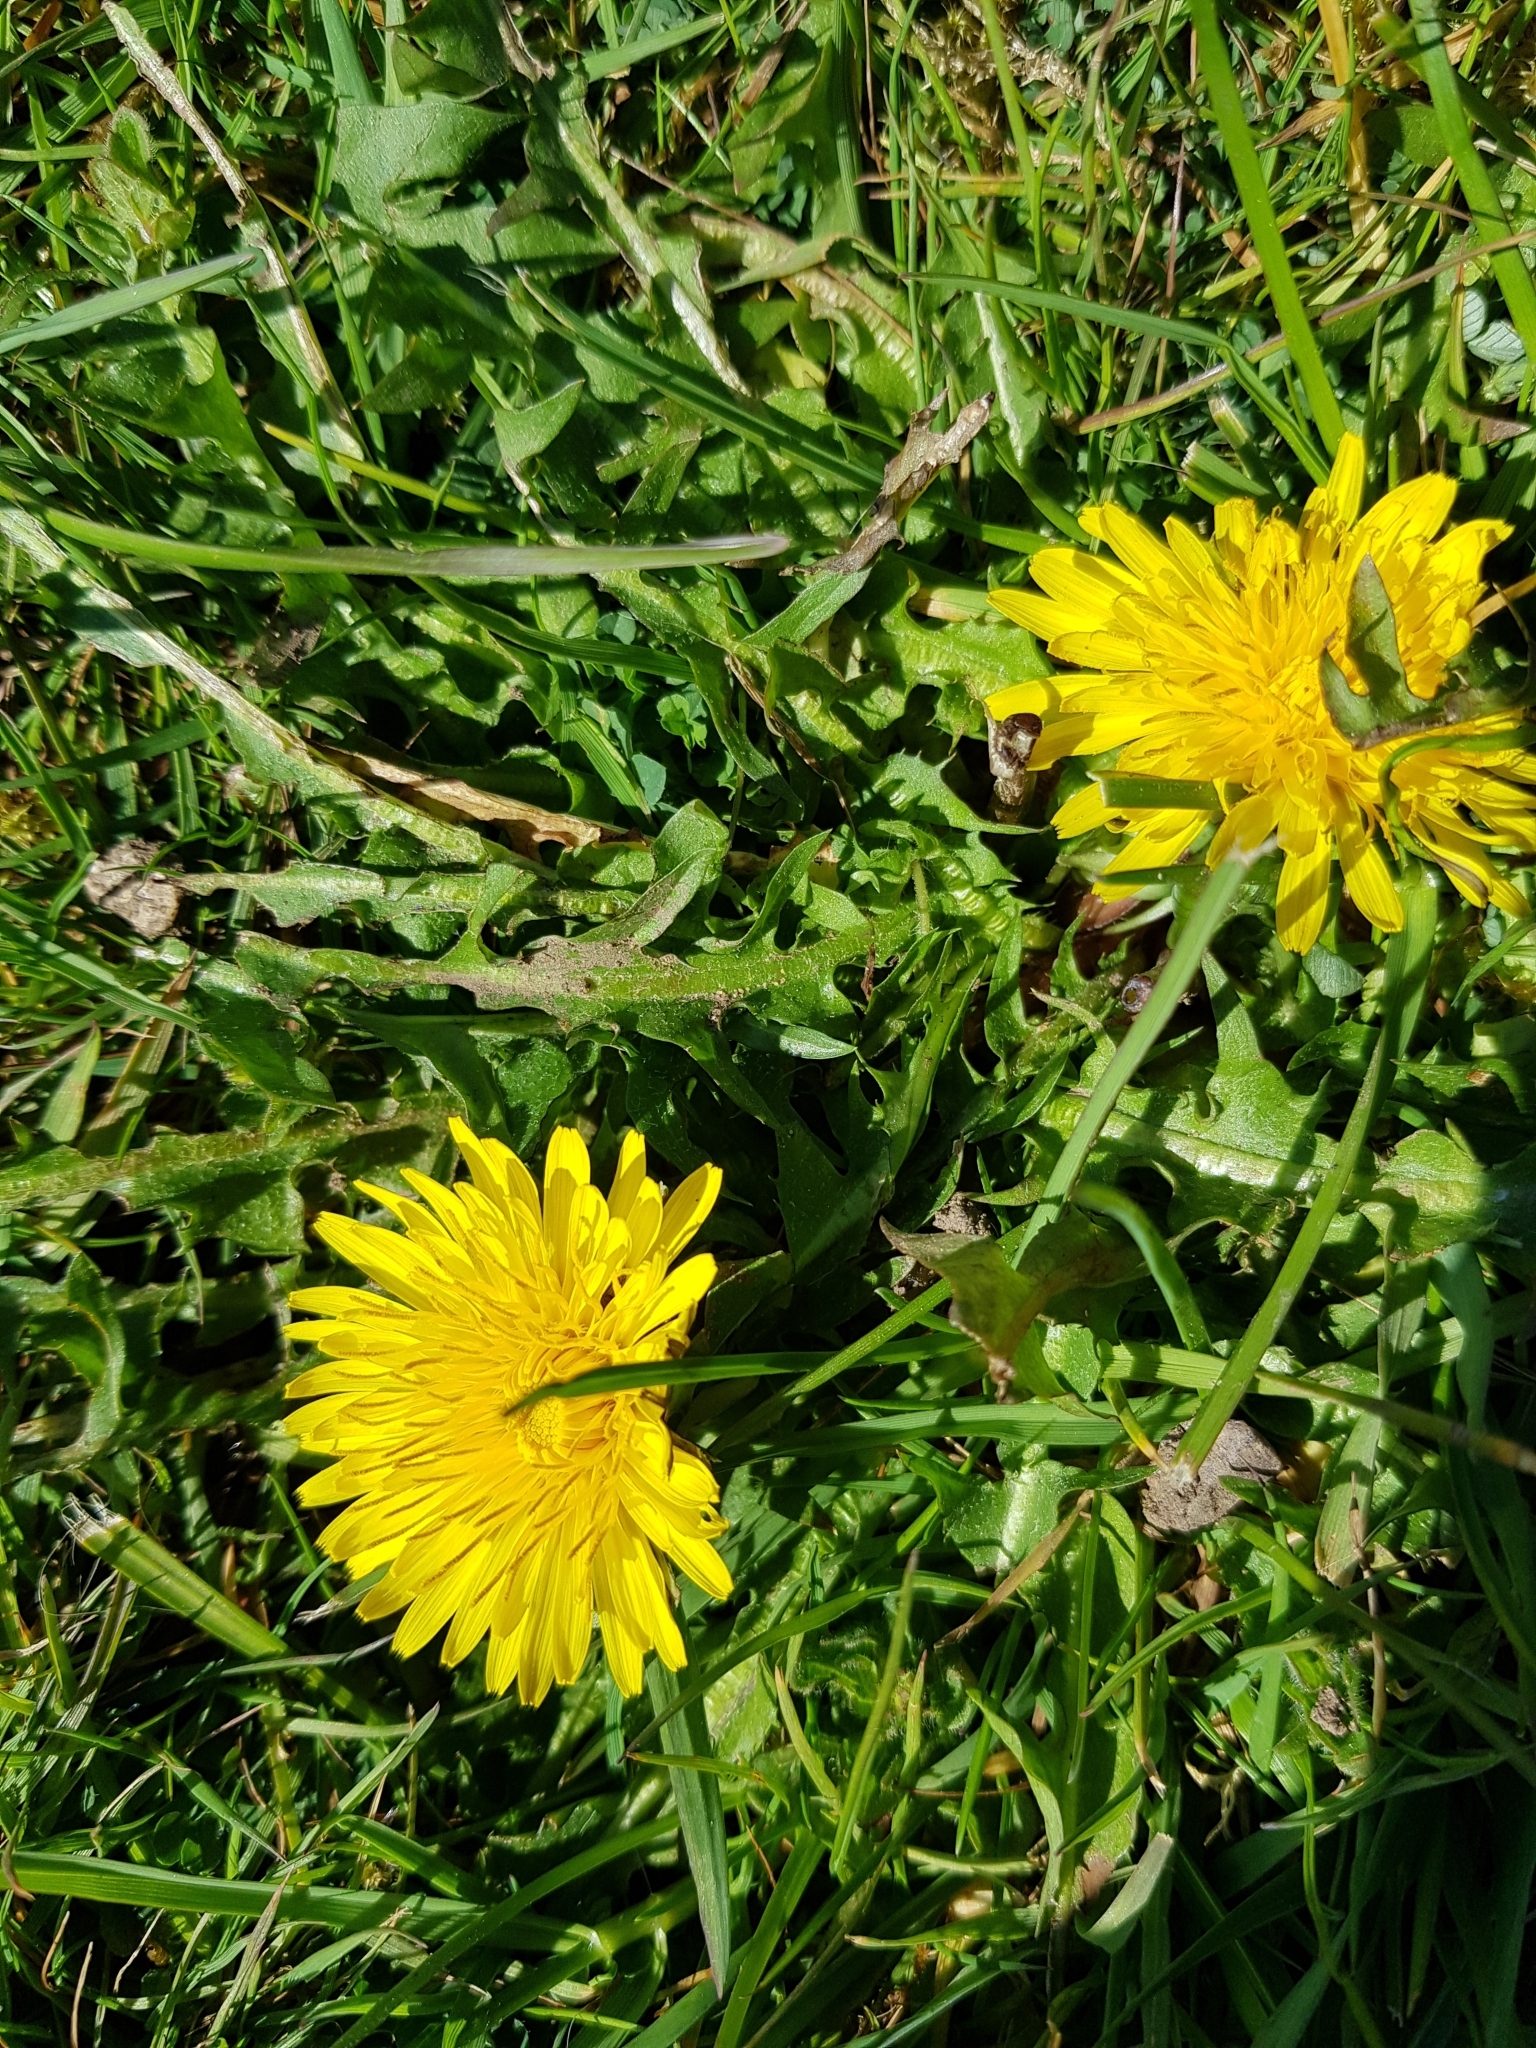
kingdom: Plantae
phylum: Tracheophyta
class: Magnoliopsida
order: Asterales
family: Asteraceae
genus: Taraxacum
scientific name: Taraxacum officinale
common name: Common dandelion
